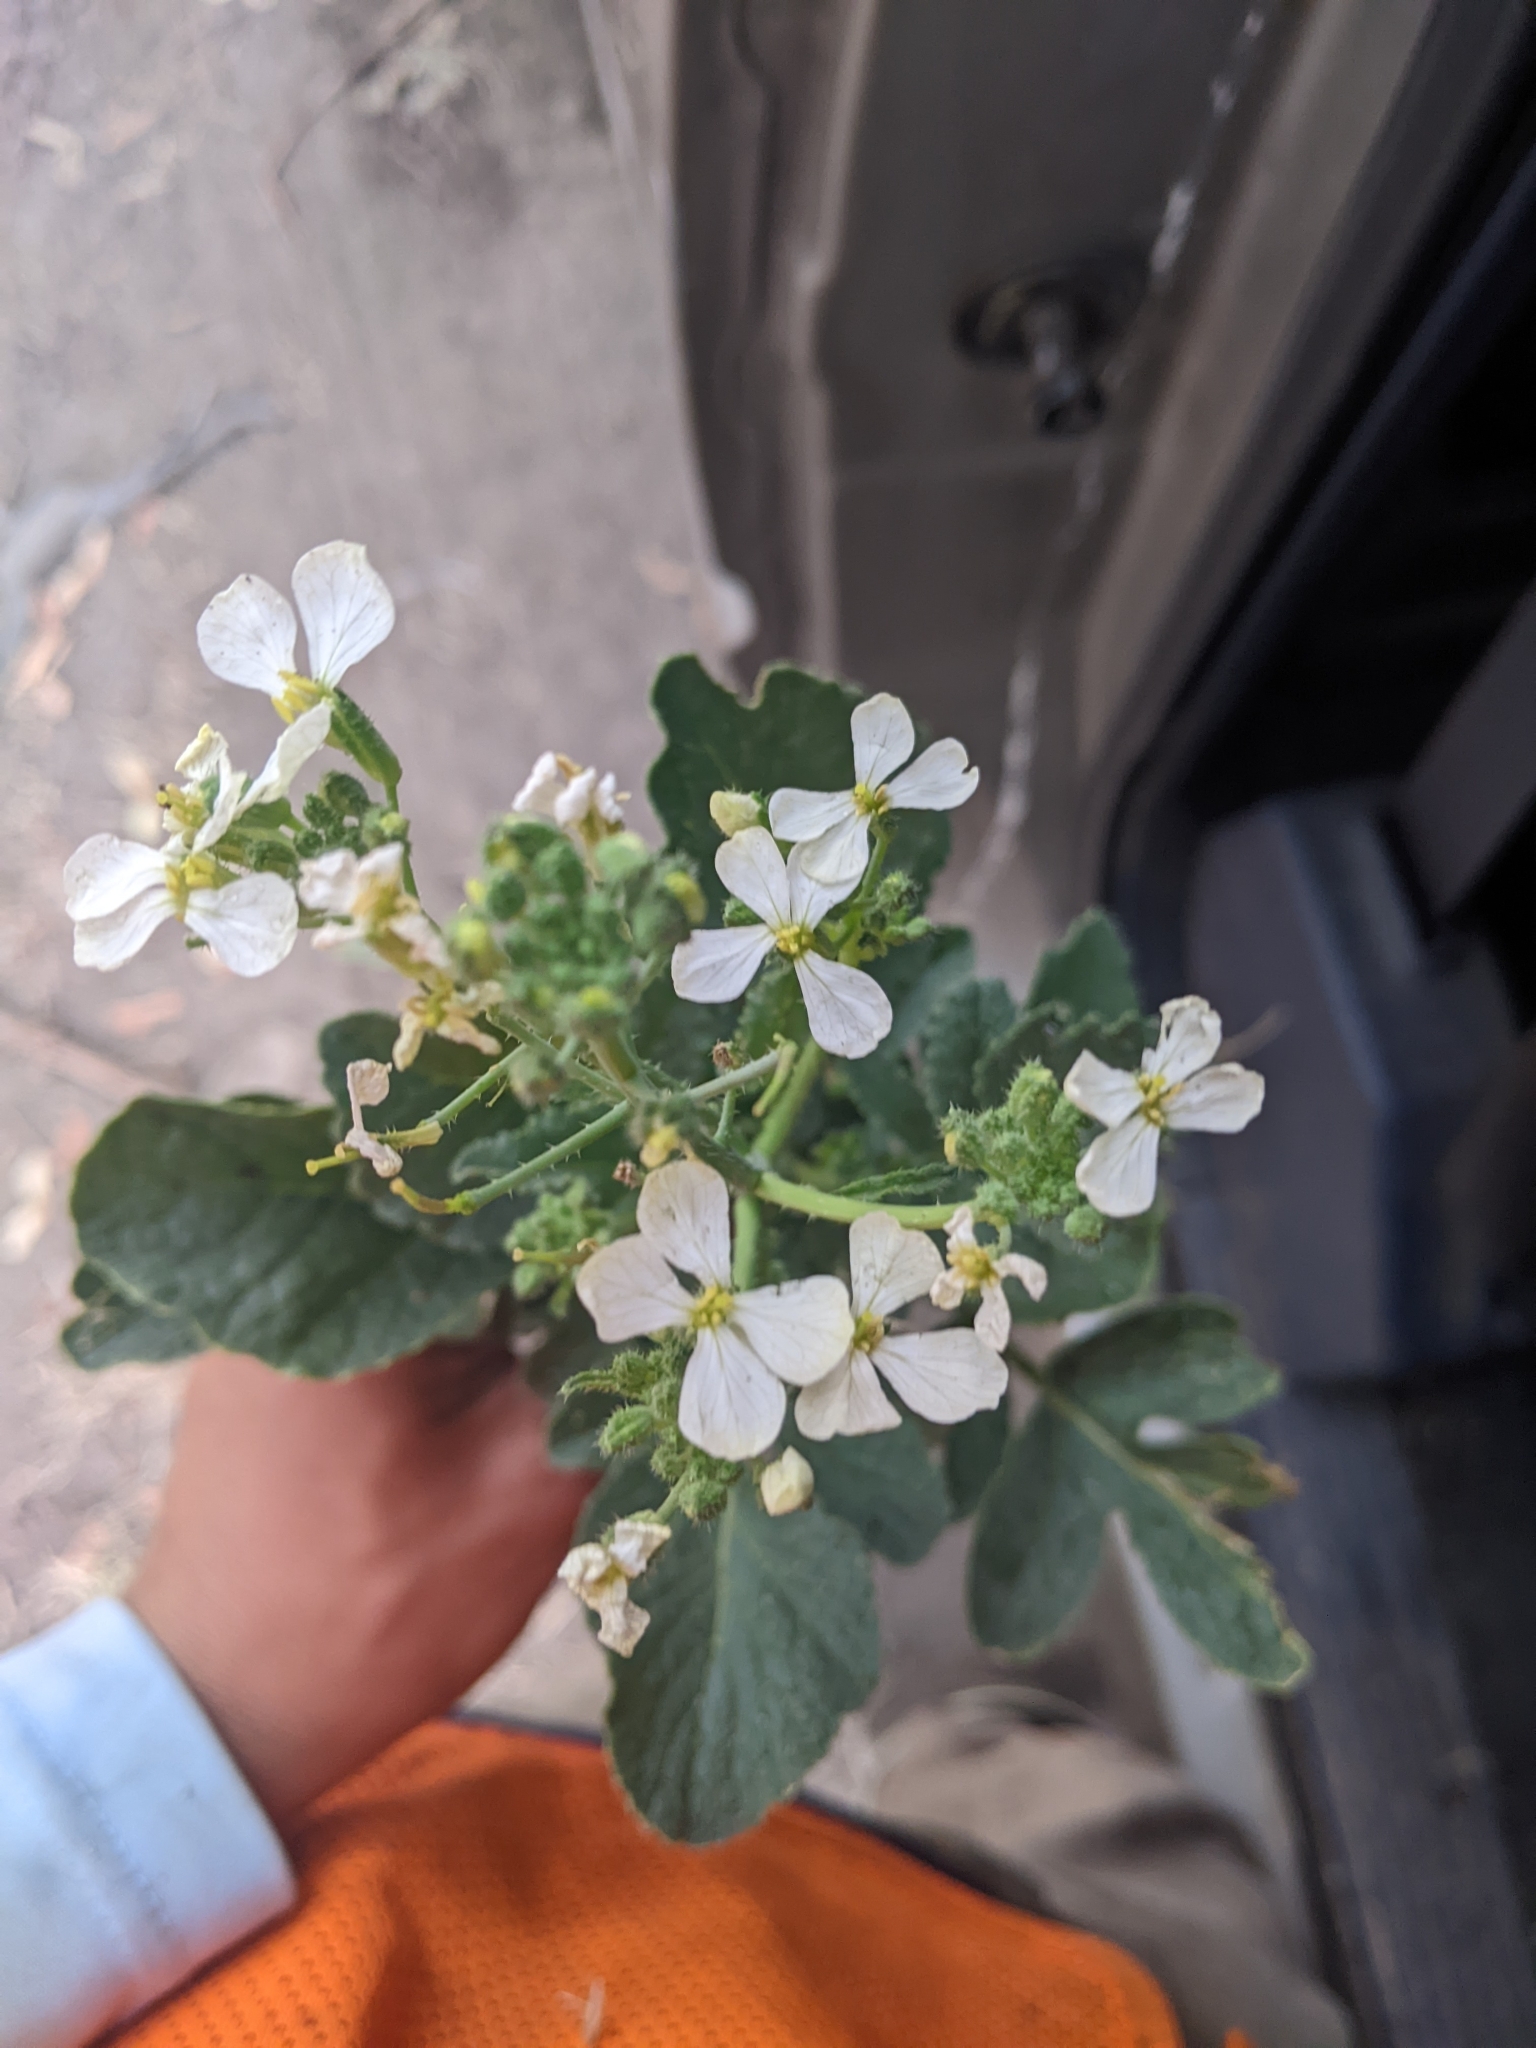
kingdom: Plantae
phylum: Tracheophyta
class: Magnoliopsida
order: Brassicales
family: Brassicaceae
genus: Raphanus
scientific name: Raphanus sativus
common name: Cultivated radish
